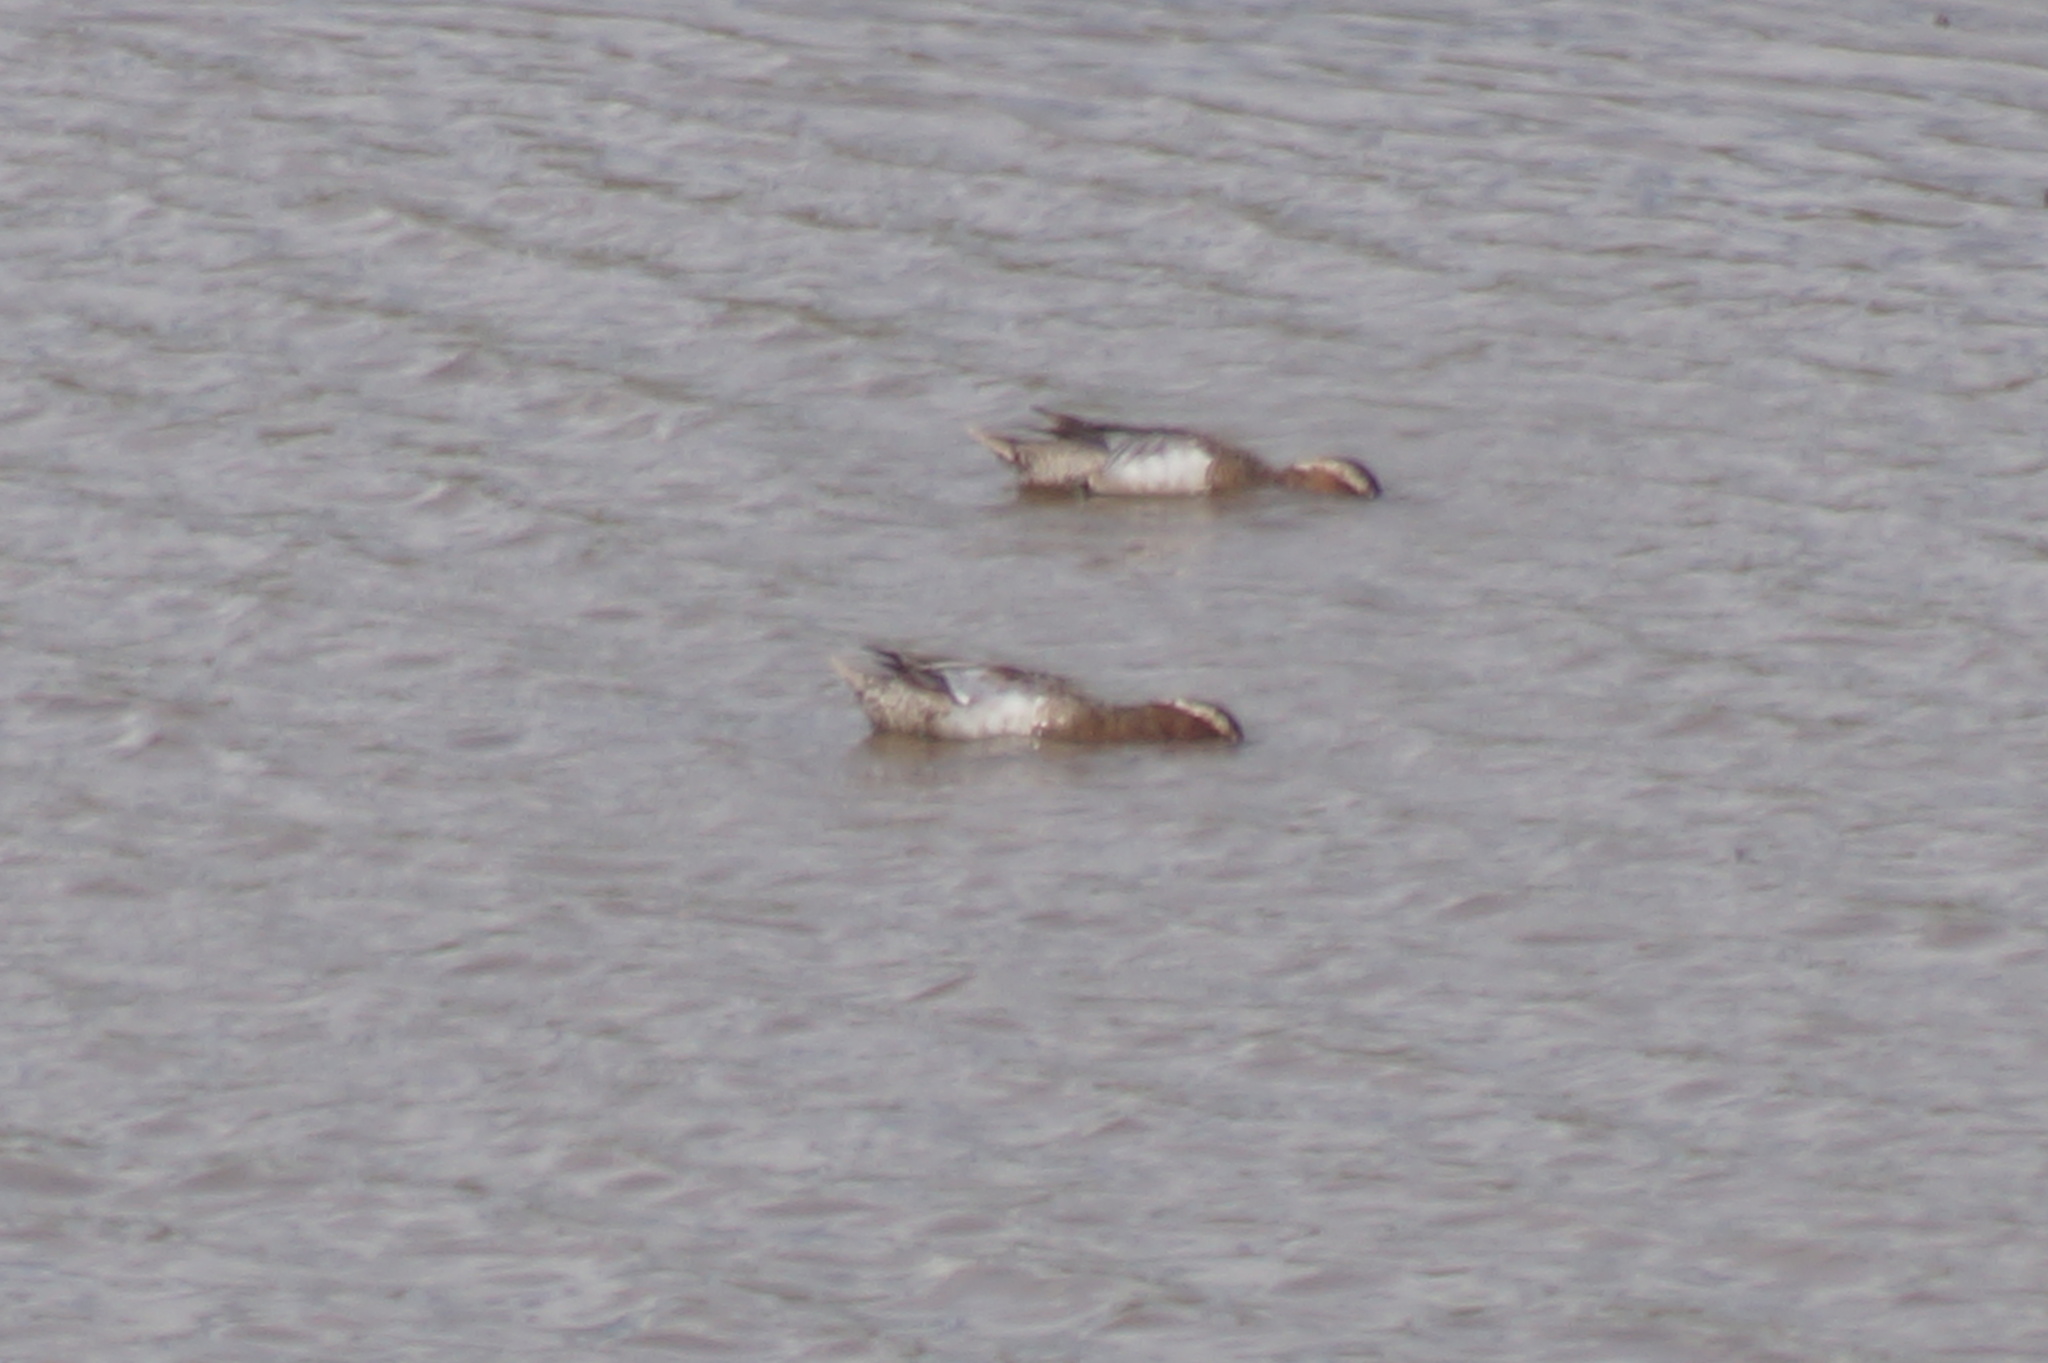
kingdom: Animalia
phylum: Chordata
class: Aves
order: Anseriformes
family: Anatidae
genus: Spatula
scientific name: Spatula querquedula
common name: Garganey
